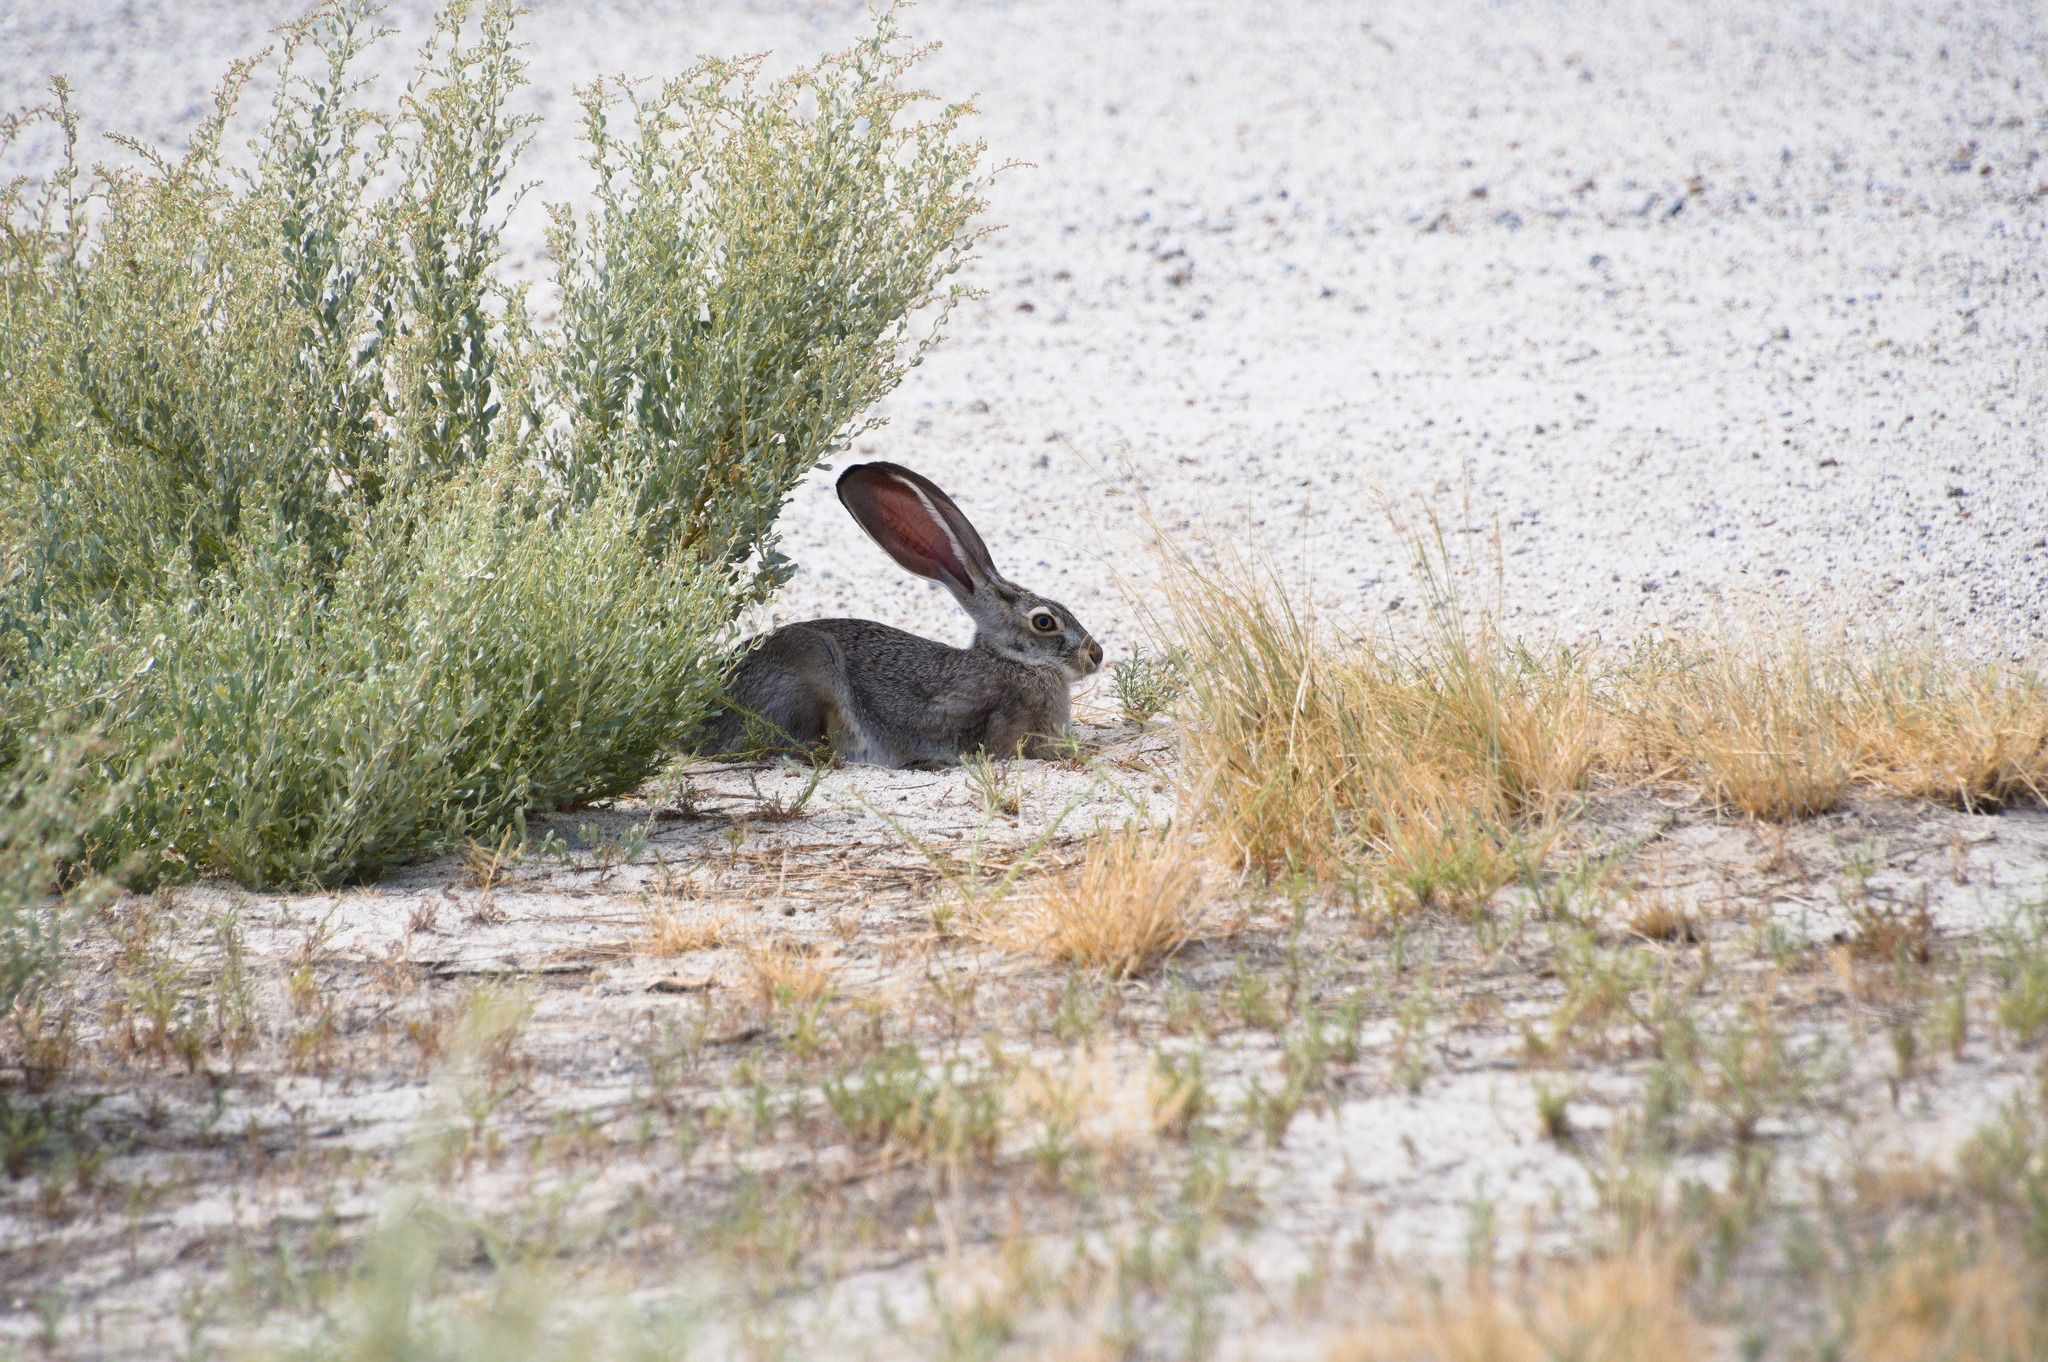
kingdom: Animalia
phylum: Chordata
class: Mammalia
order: Lagomorpha
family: Leporidae
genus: Lepus
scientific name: Lepus californicus
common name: Black-tailed jackrabbit
